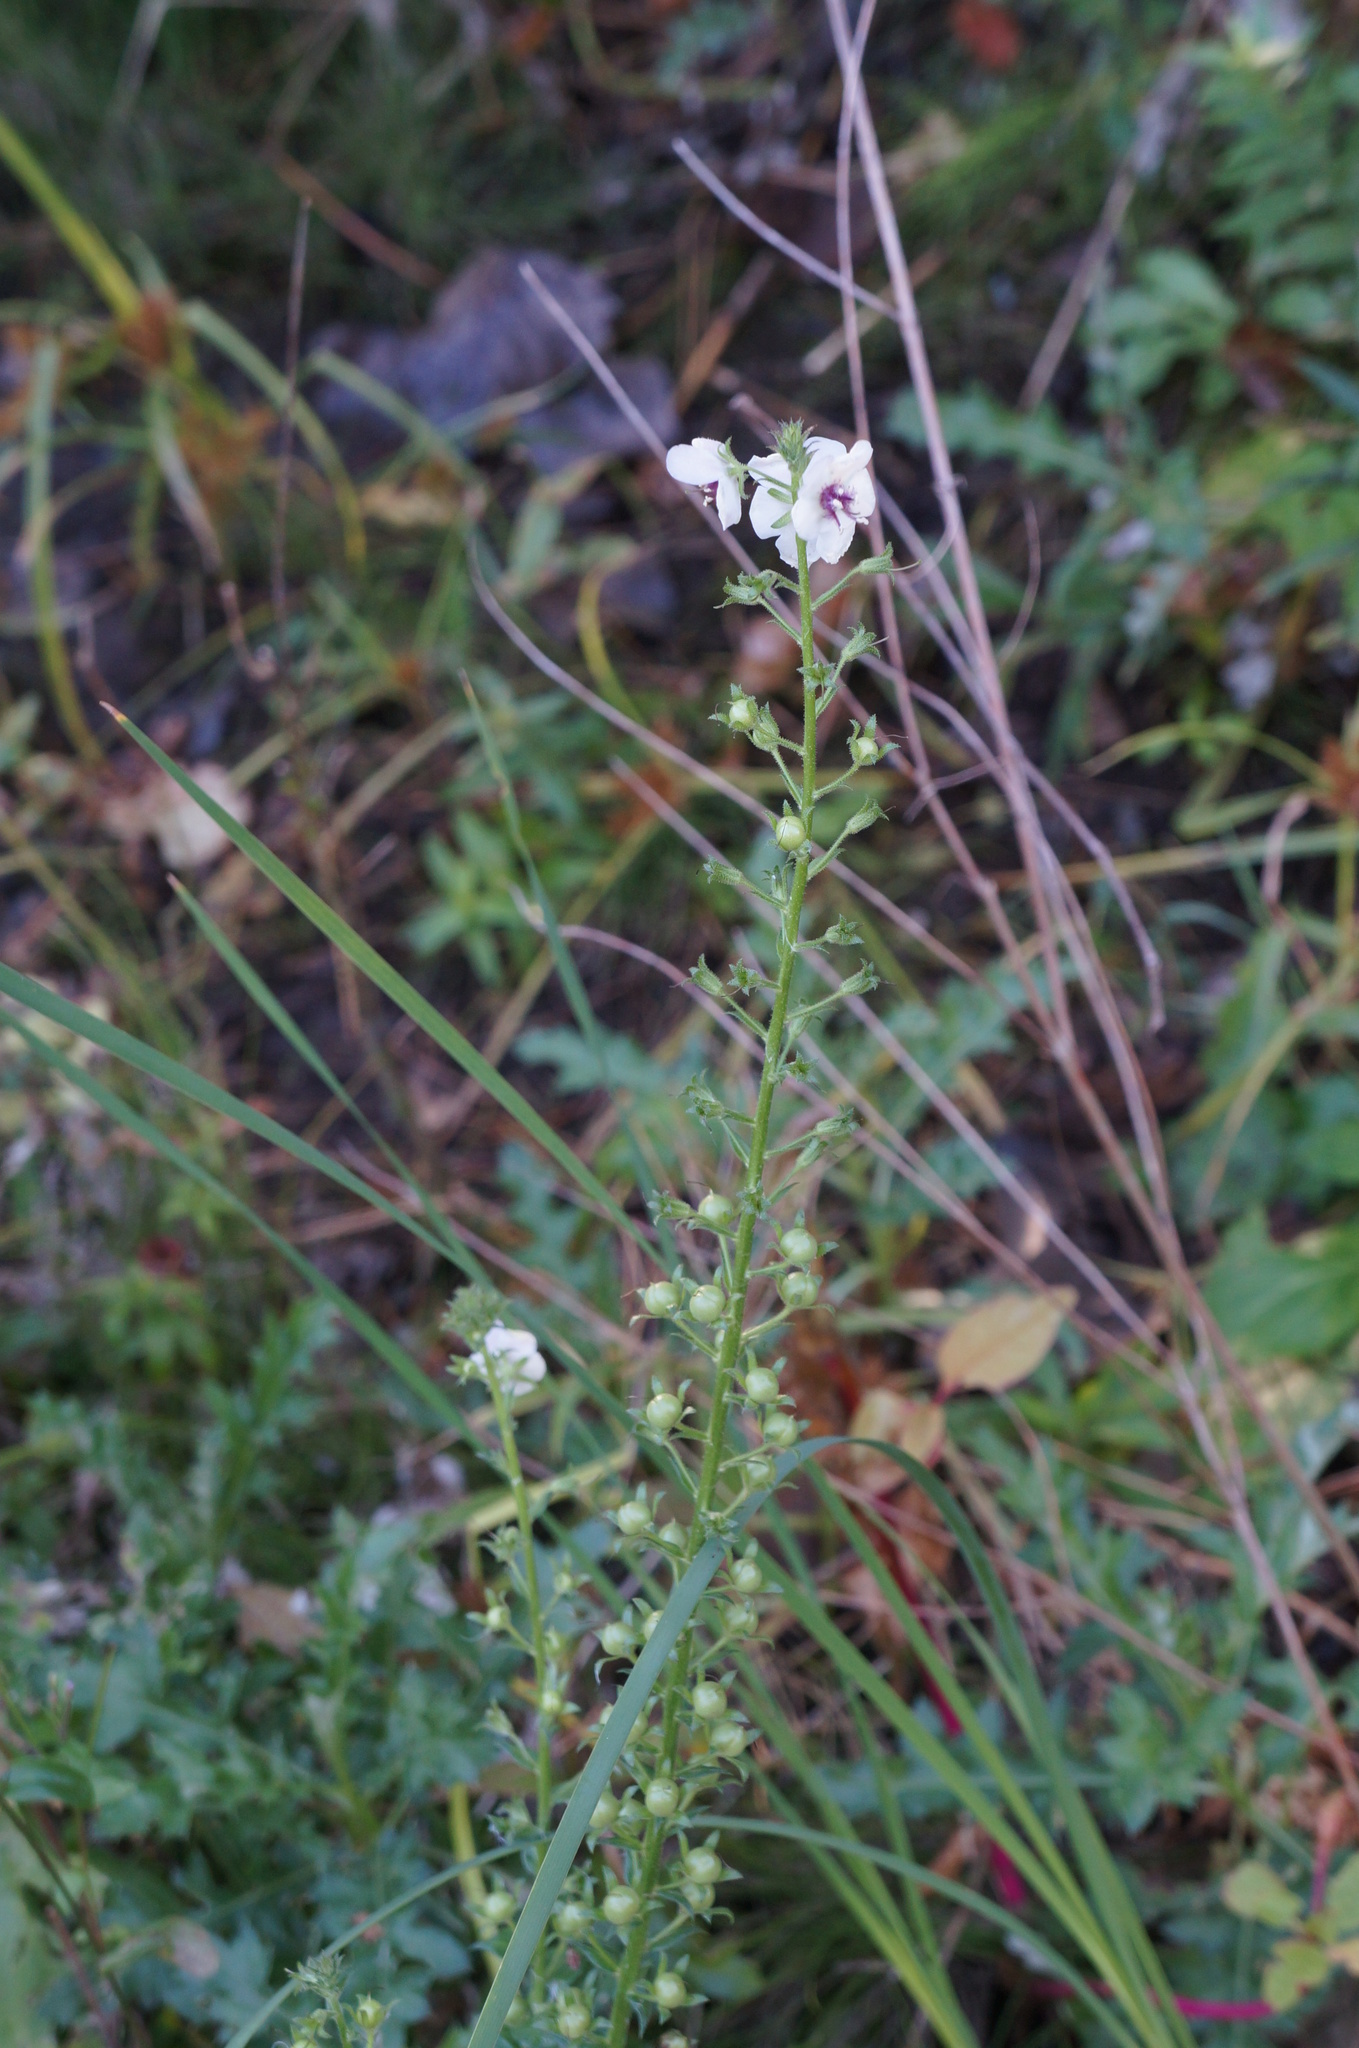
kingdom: Plantae
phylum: Tracheophyta
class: Magnoliopsida
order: Lamiales
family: Scrophulariaceae
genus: Verbascum
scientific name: Verbascum blattaria
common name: Moth mullein
